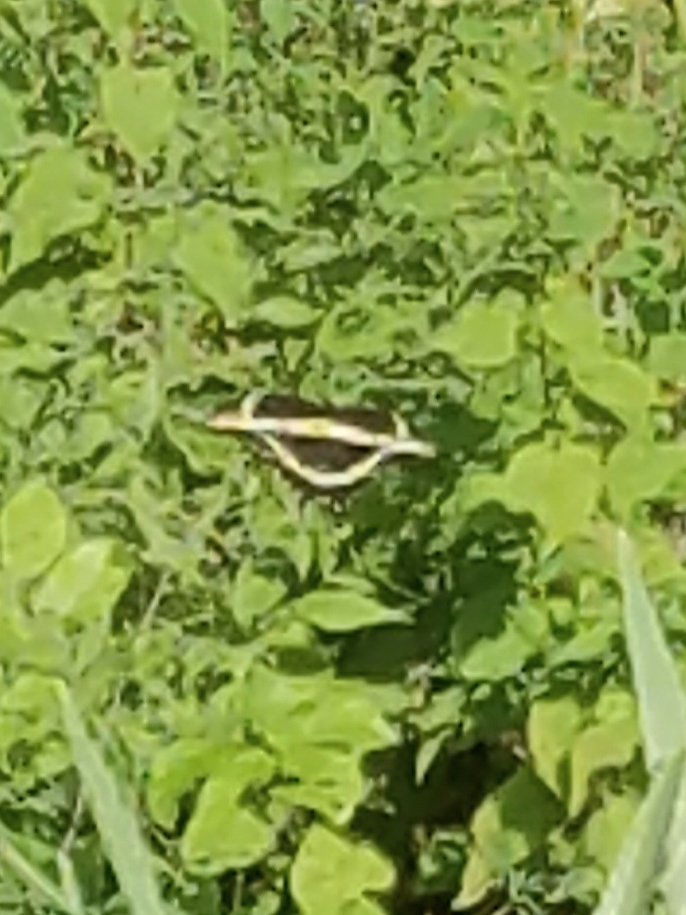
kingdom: Animalia
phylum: Arthropoda
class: Insecta
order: Lepidoptera
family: Papilionidae
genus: Papilio
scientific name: Papilio cresphontes
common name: Giant swallowtail
